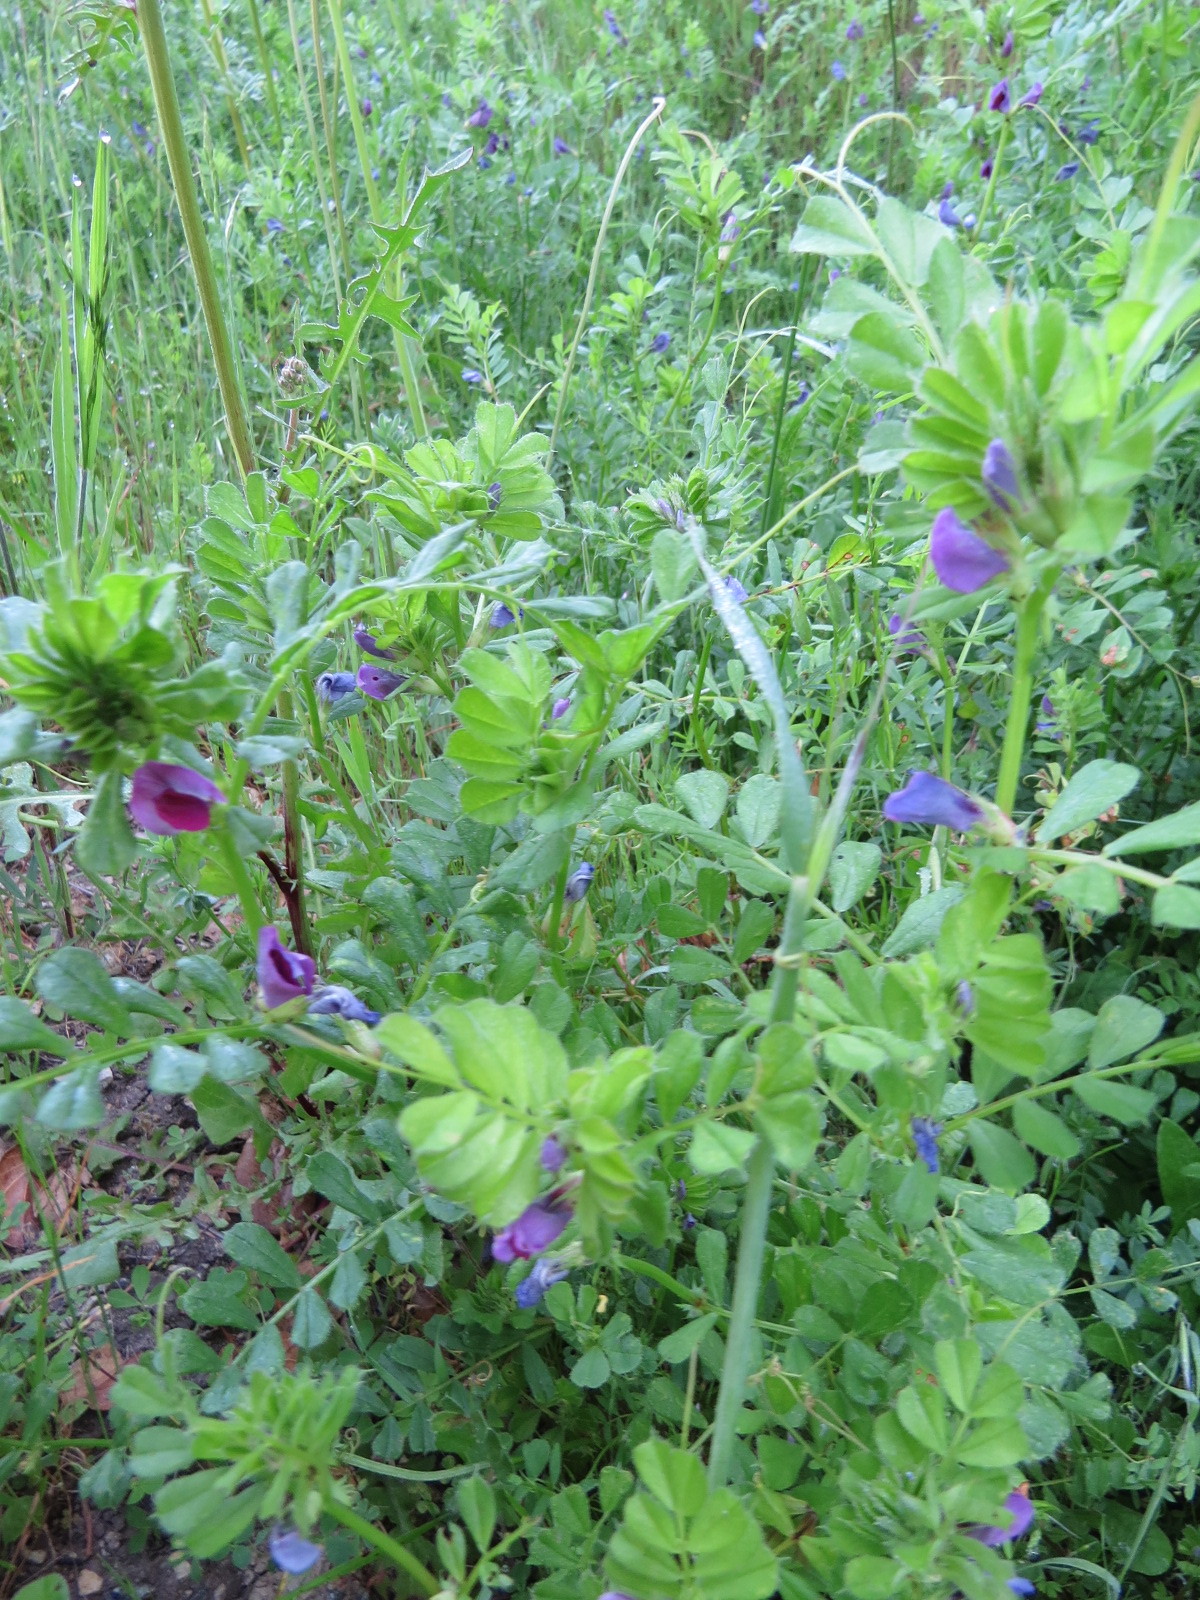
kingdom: Plantae
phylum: Tracheophyta
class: Magnoliopsida
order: Fabales
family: Fabaceae
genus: Vicia
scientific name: Vicia sativa
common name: Garden vetch
